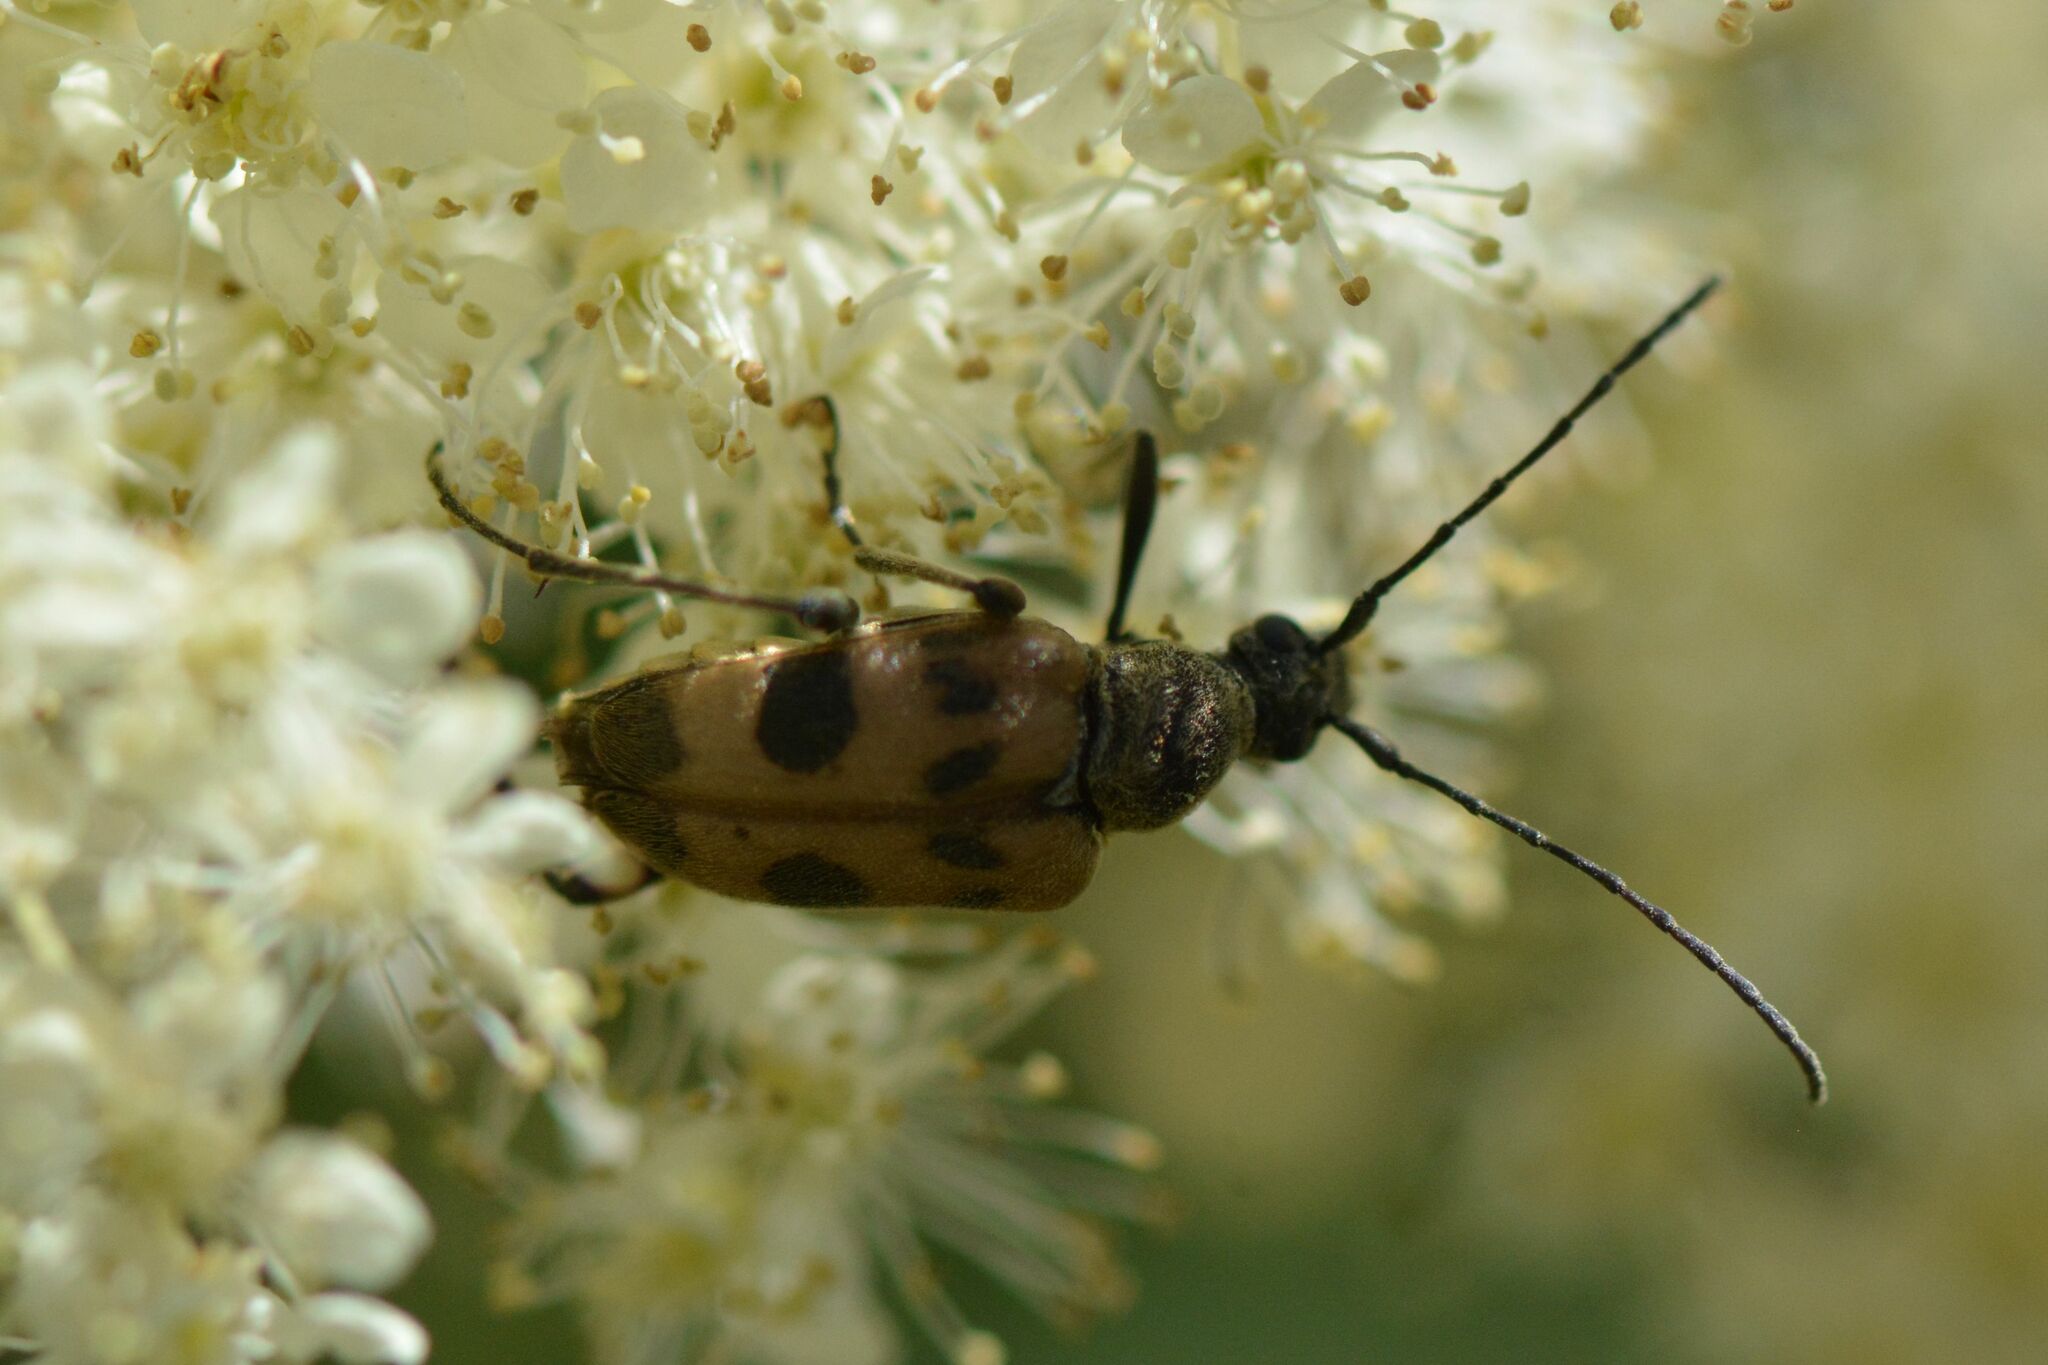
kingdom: Animalia
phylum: Arthropoda
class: Insecta
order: Coleoptera
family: Cerambycidae
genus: Pachytodes
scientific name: Pachytodes cerambyciformis
